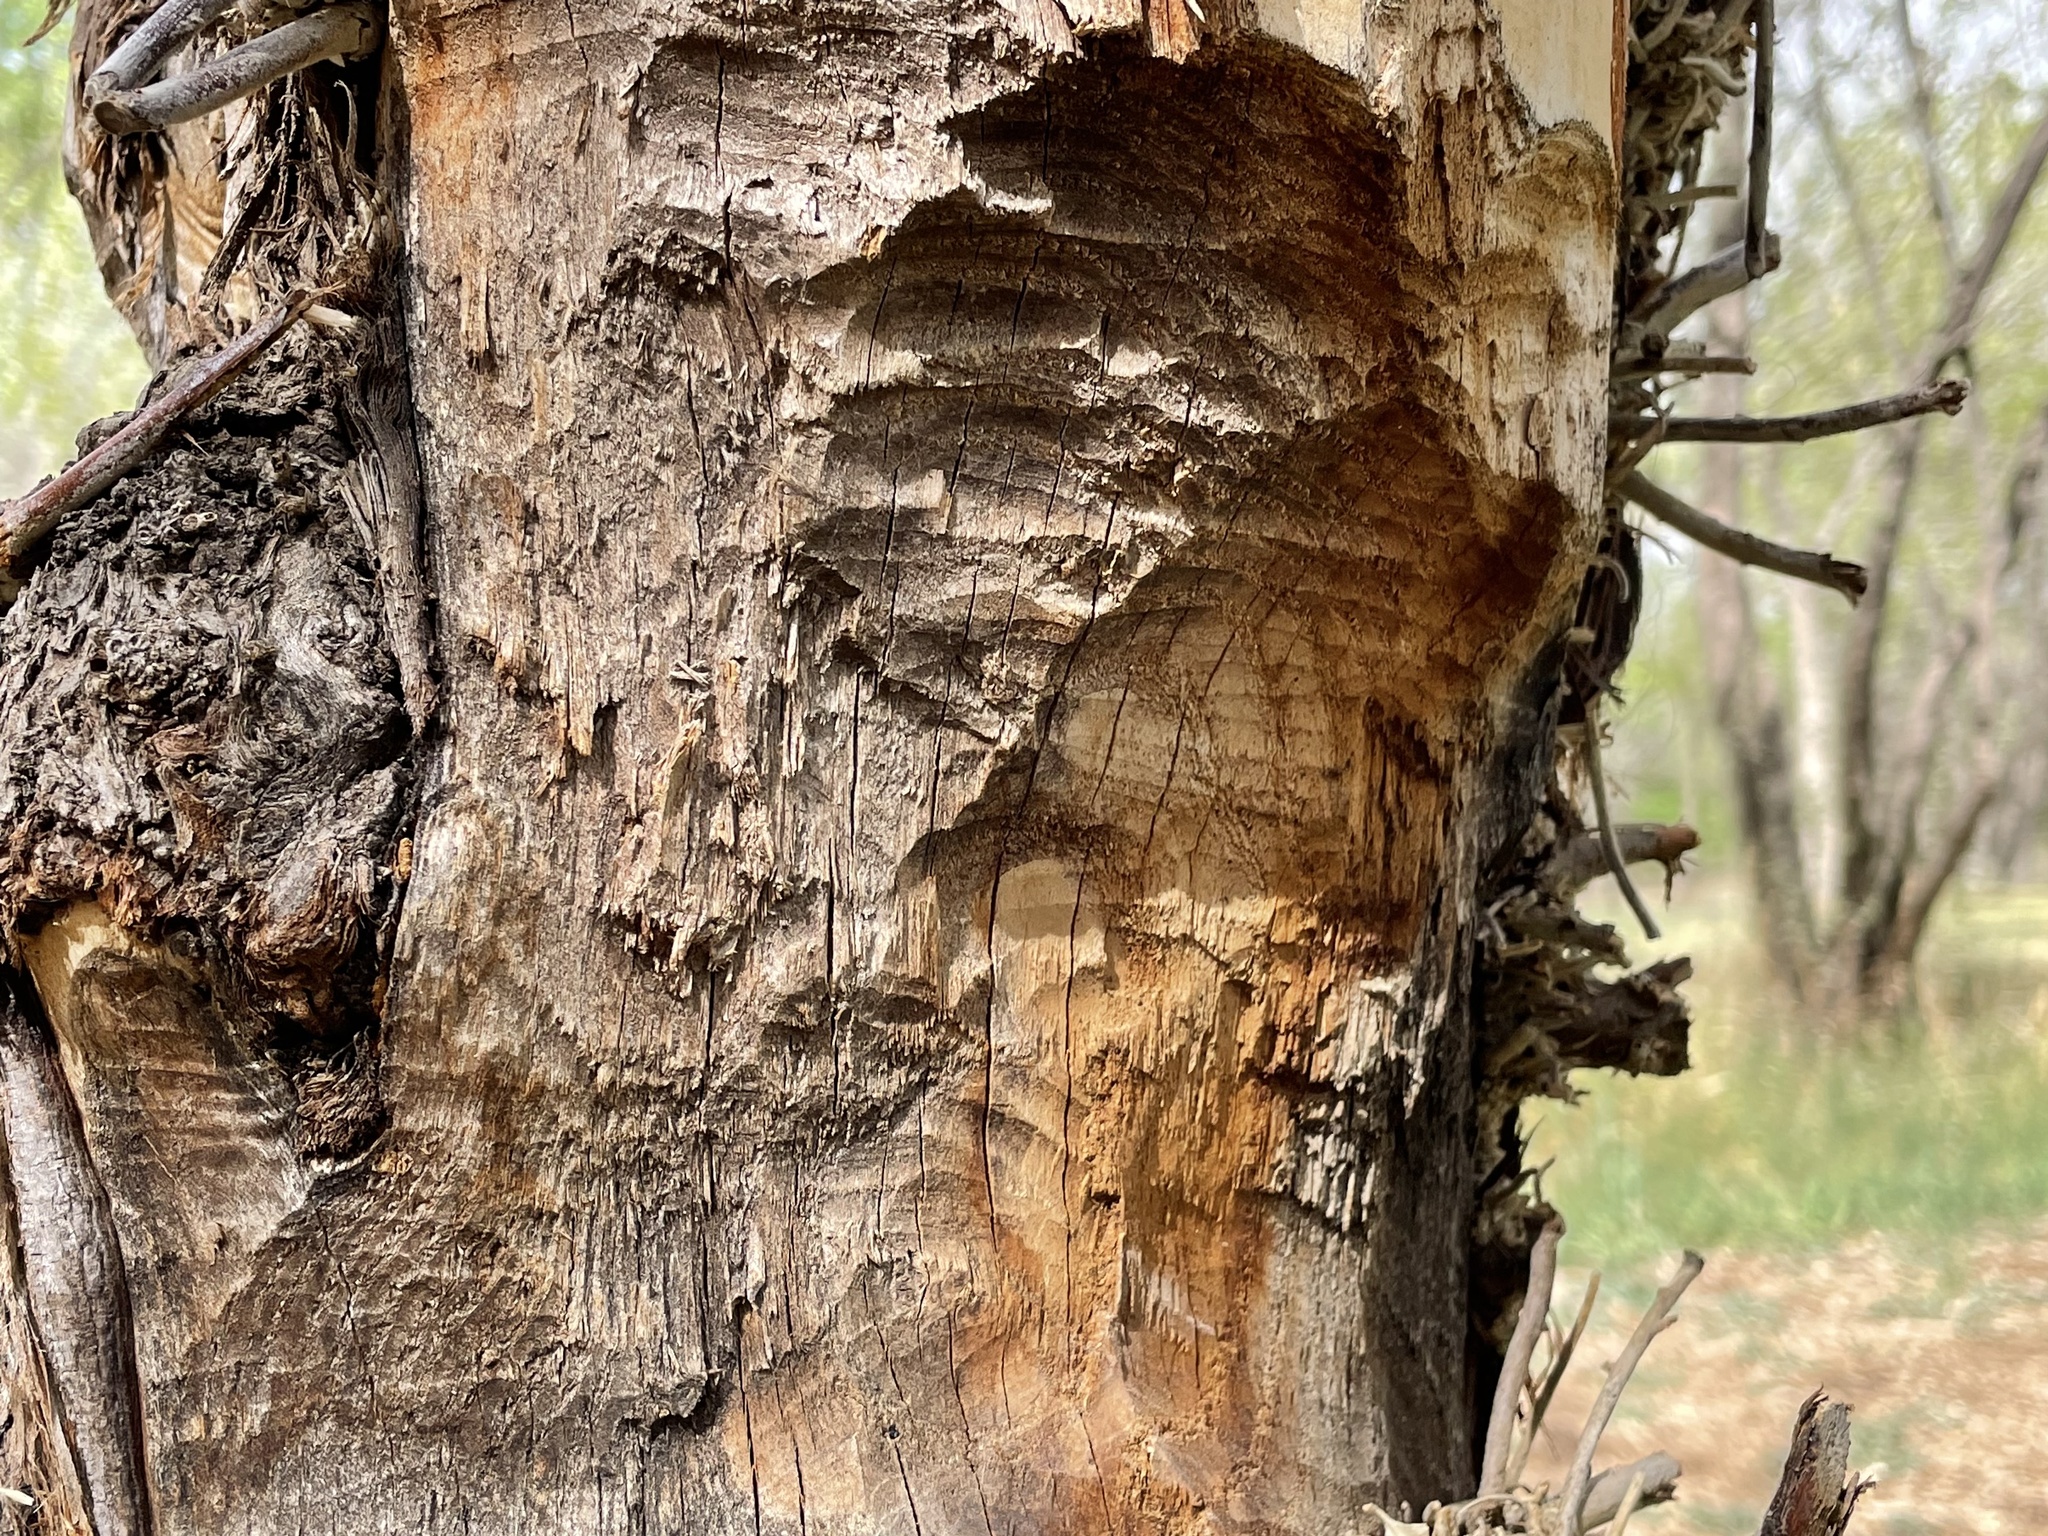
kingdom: Animalia
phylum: Chordata
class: Mammalia
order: Rodentia
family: Castoridae
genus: Castor
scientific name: Castor canadensis
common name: American beaver
